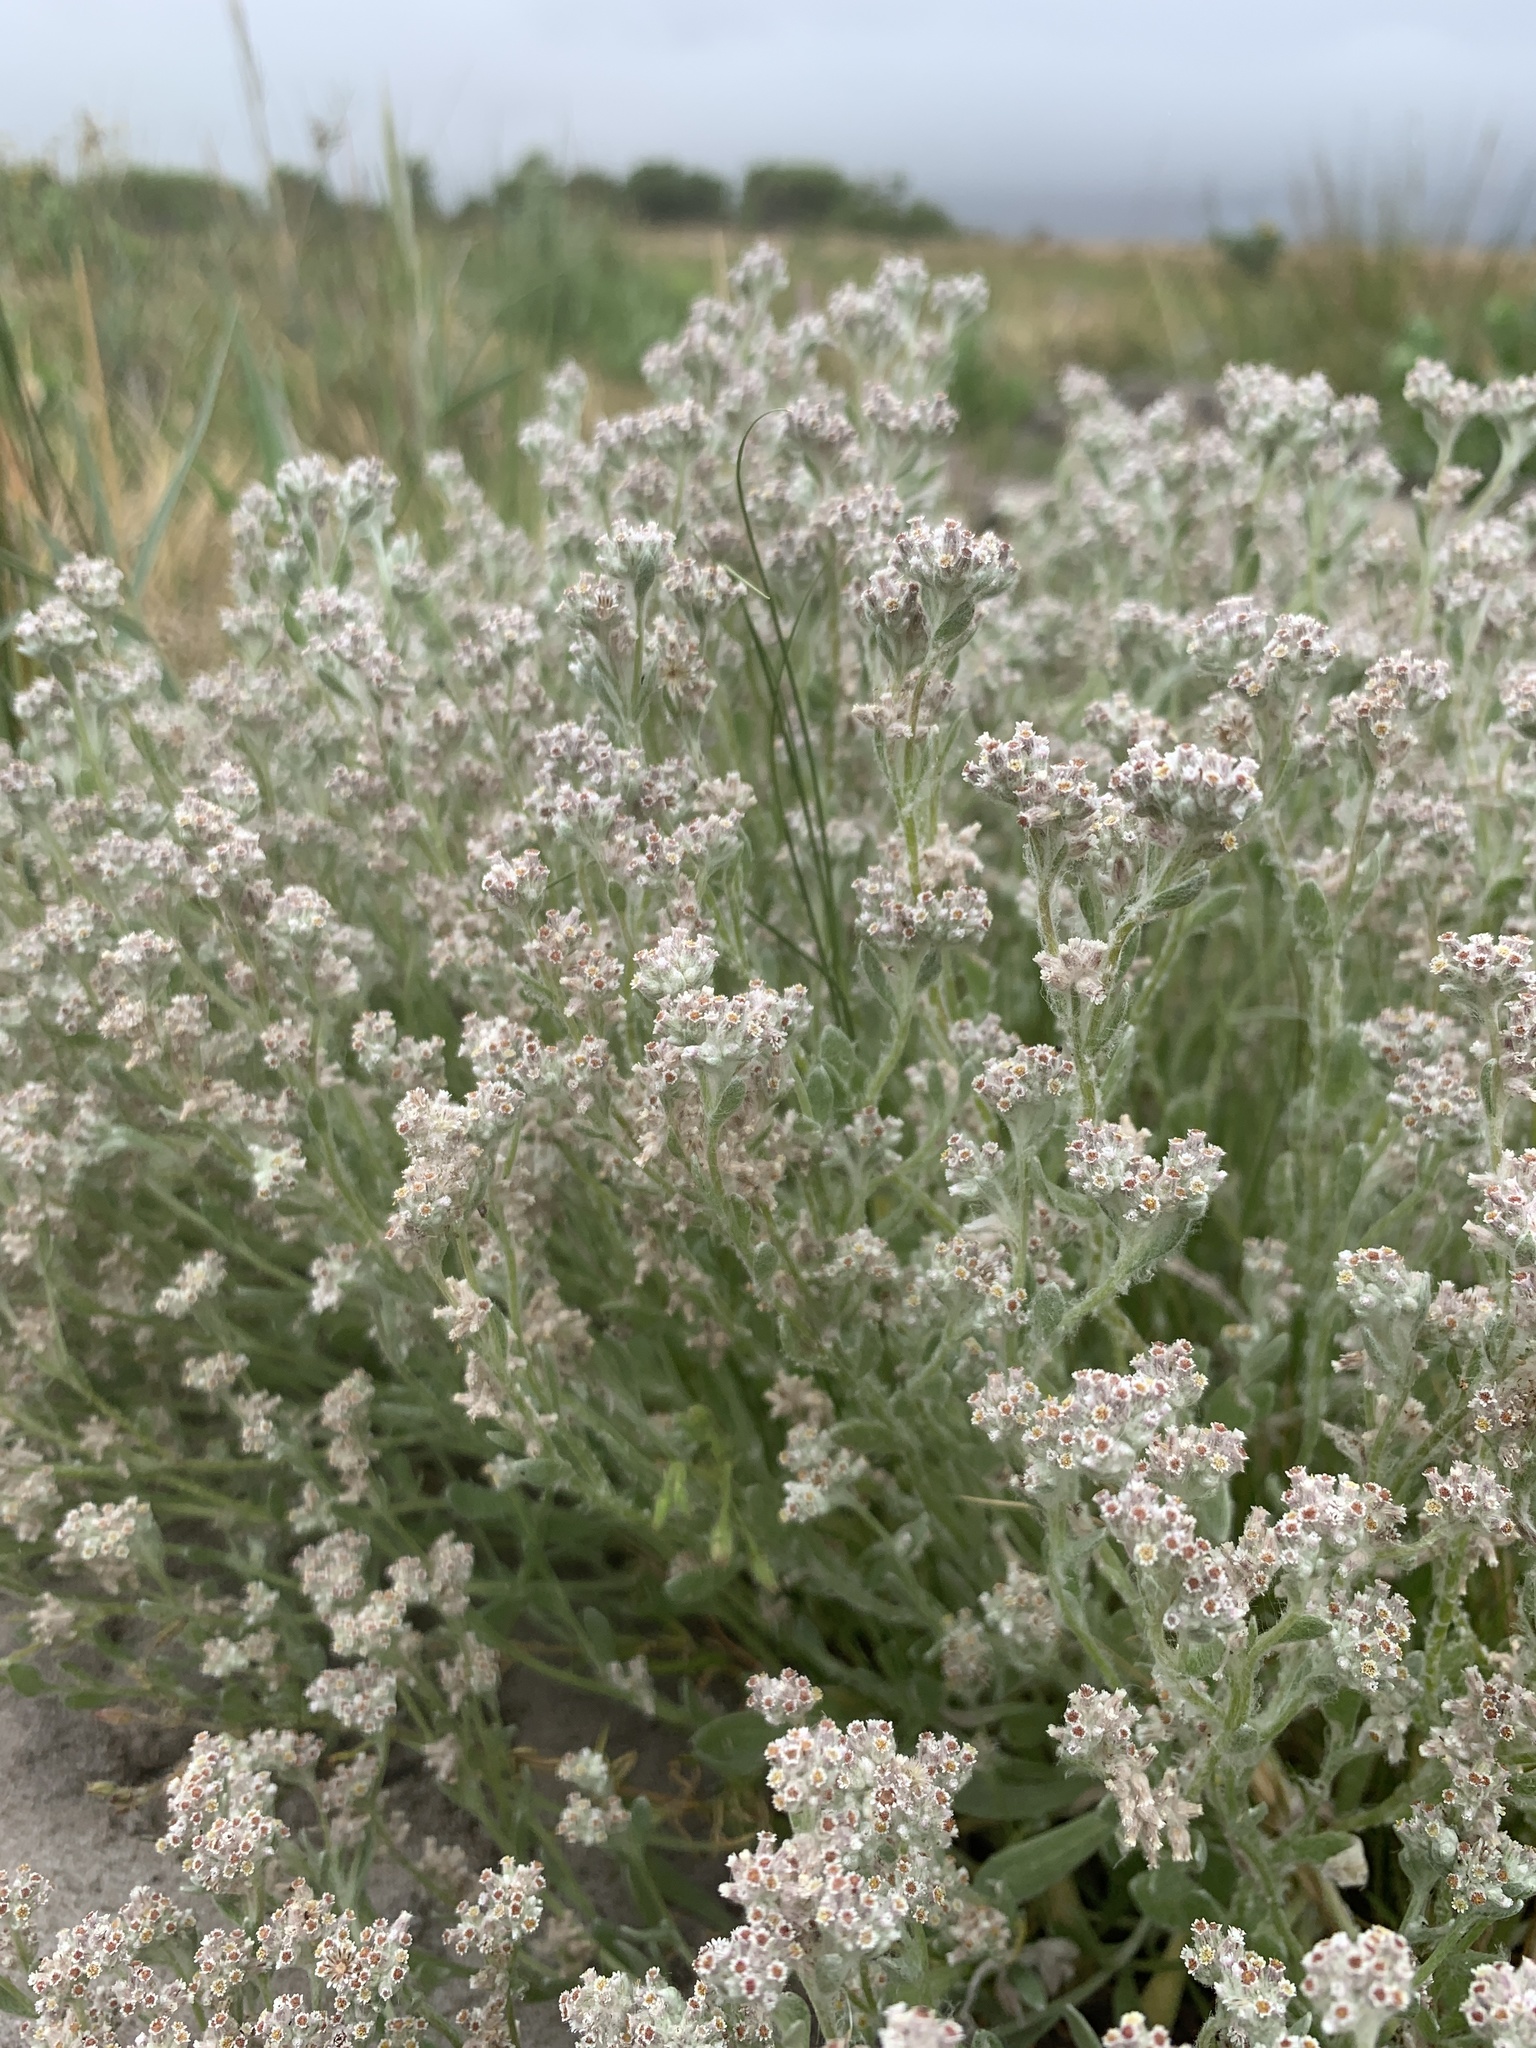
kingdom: Plantae
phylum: Tracheophyta
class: Magnoliopsida
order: Asterales
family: Asteraceae
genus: Vellereophyton
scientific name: Vellereophyton dealbatum
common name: White-cudweed
